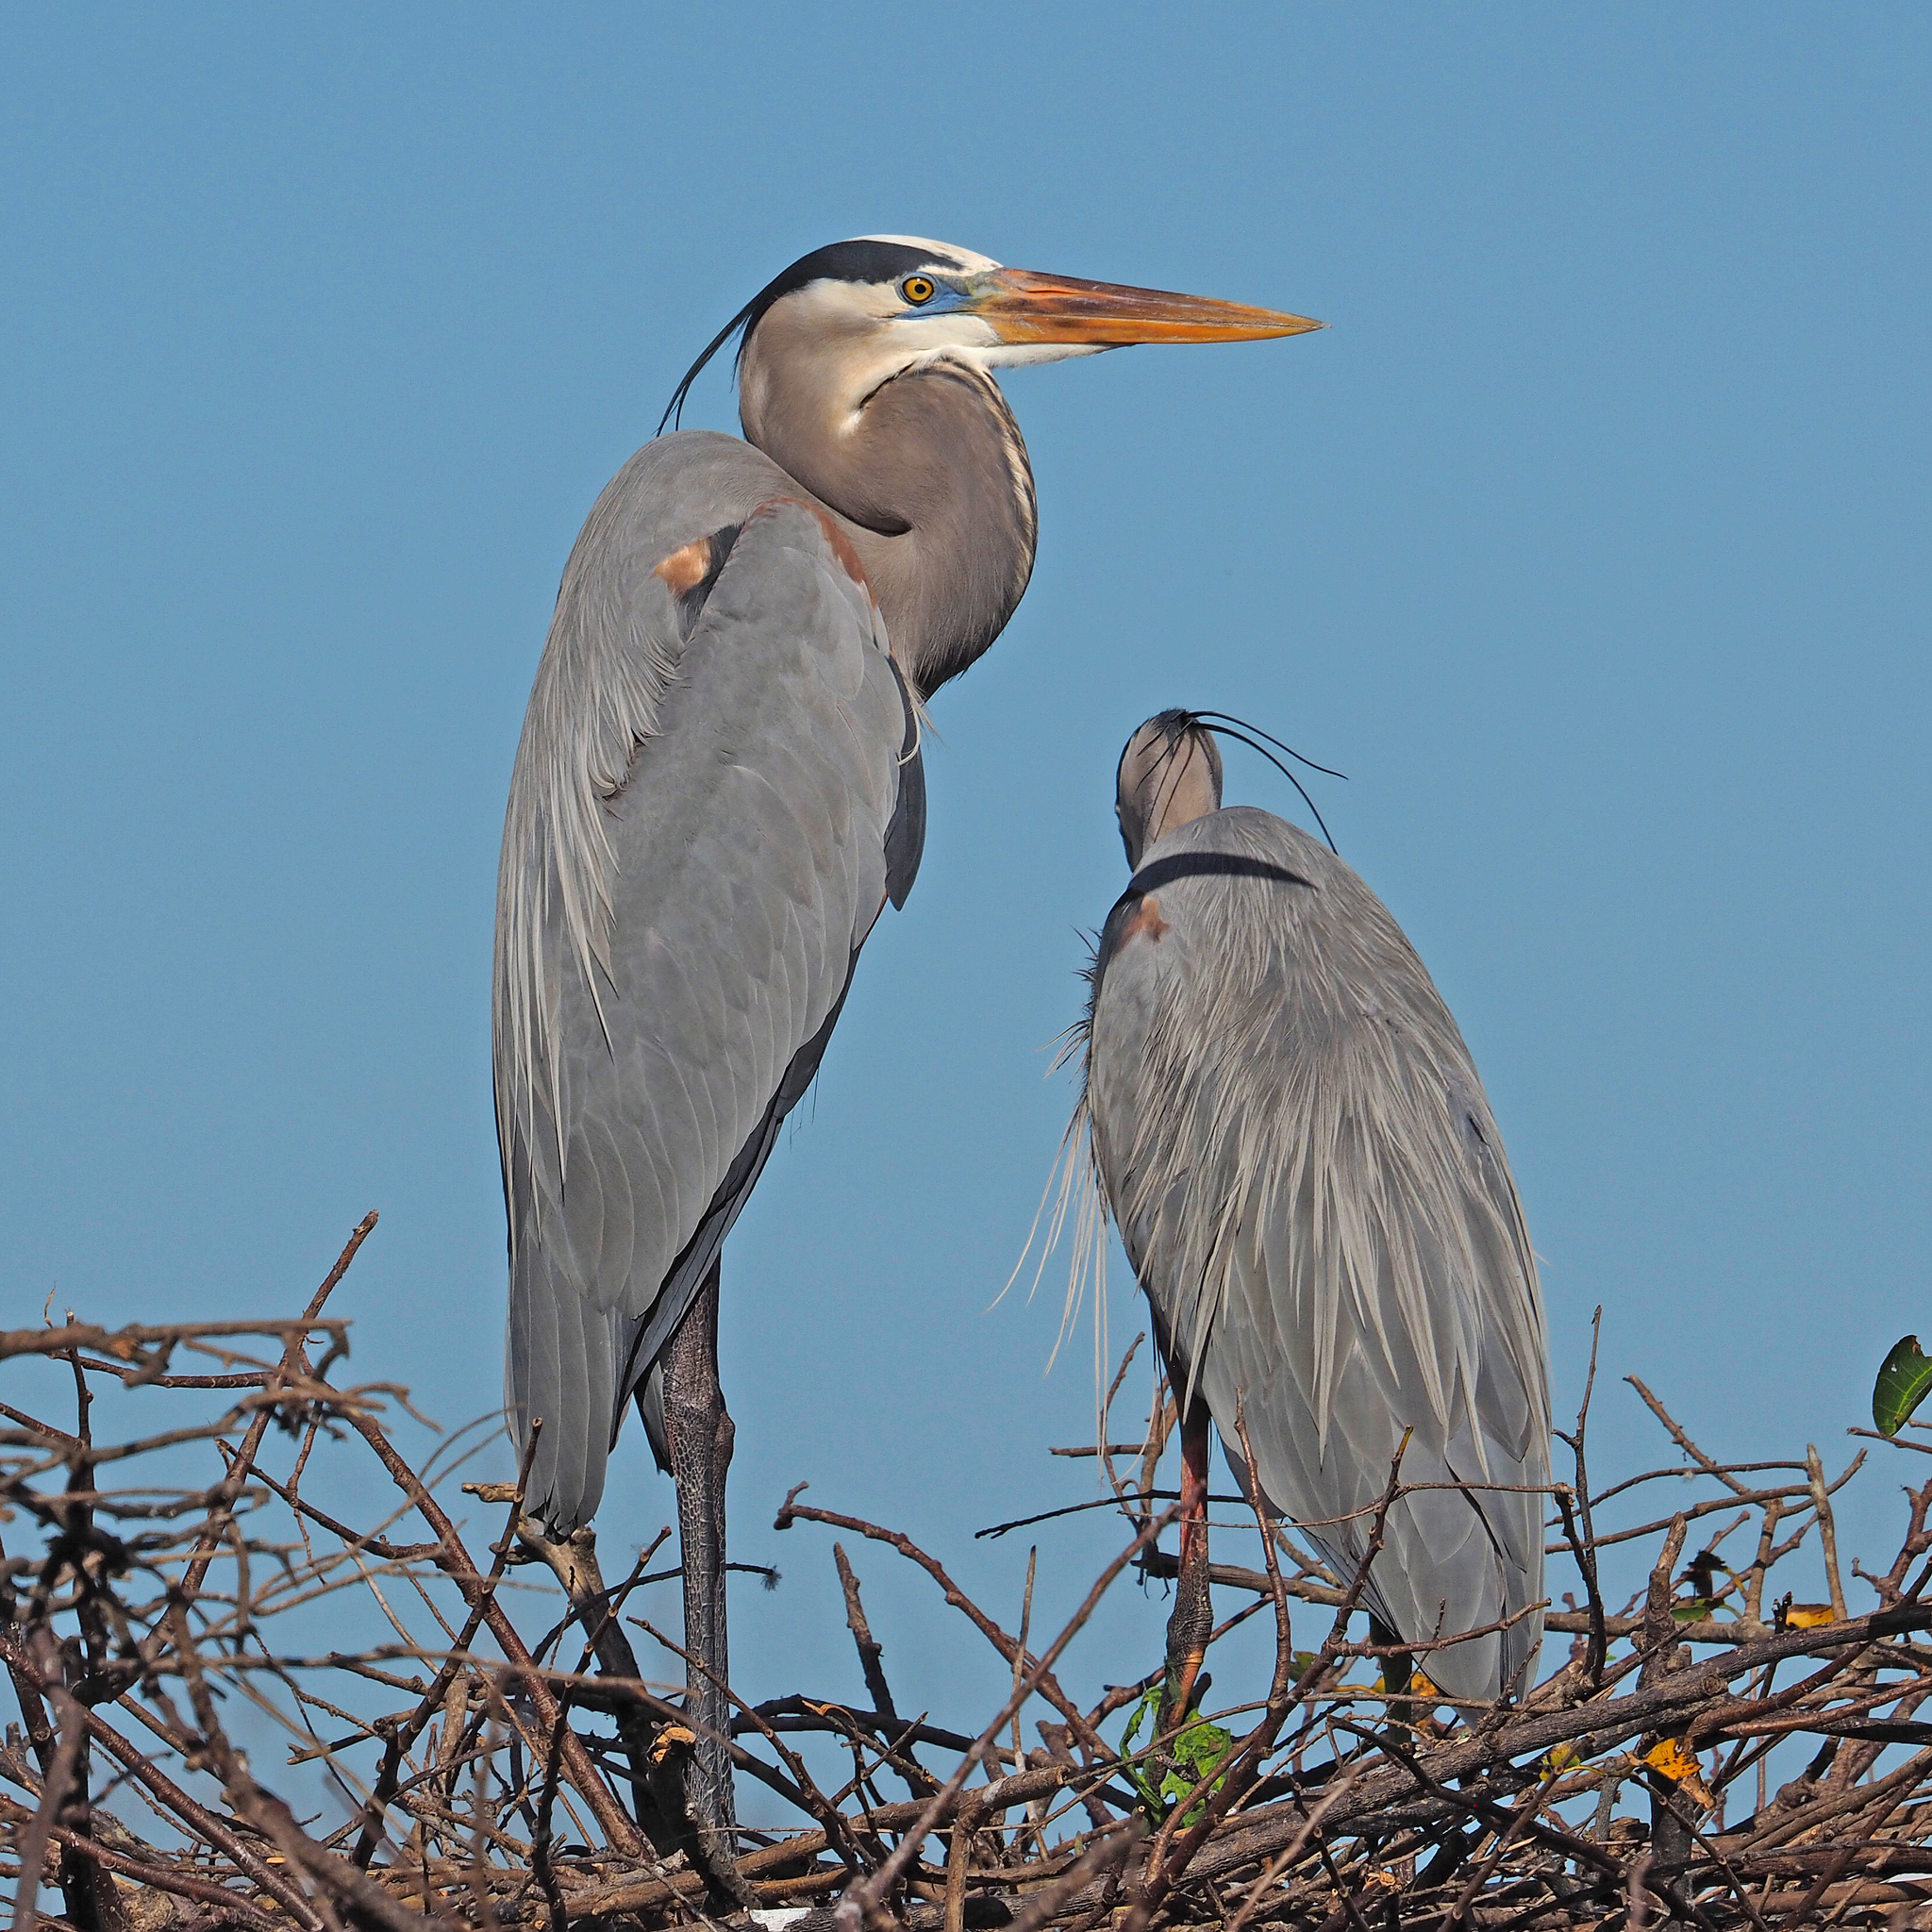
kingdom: Animalia
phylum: Chordata
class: Aves
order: Pelecaniformes
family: Ardeidae
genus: Ardea
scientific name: Ardea herodias
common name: Great blue heron
